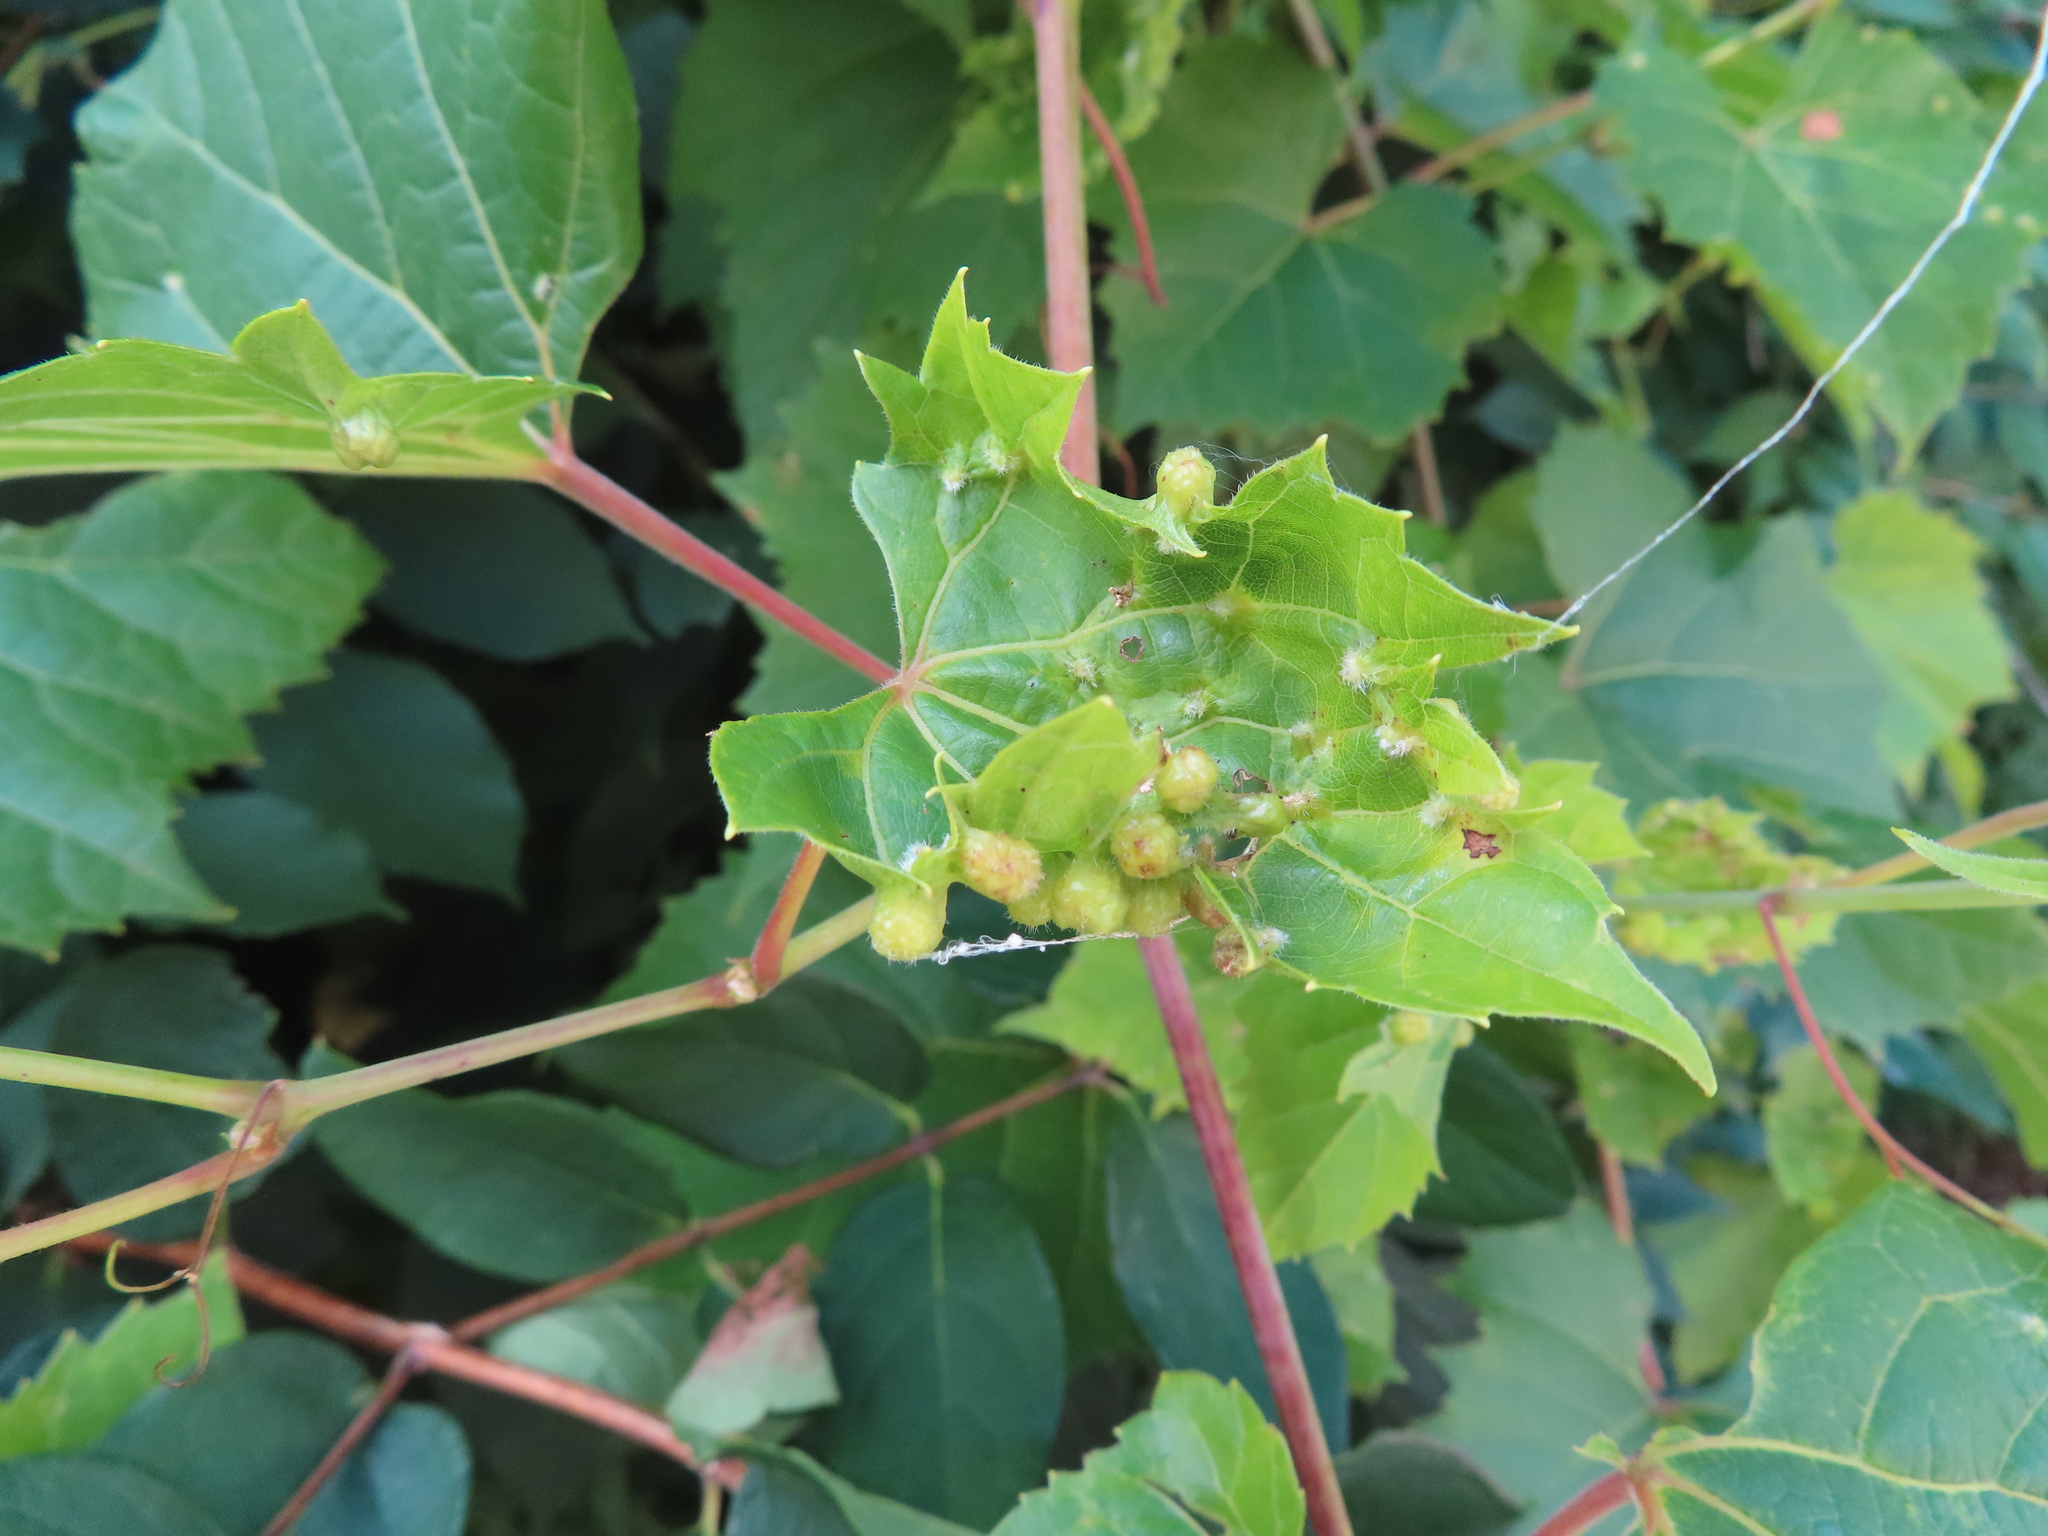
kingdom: Animalia
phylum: Arthropoda
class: Insecta
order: Hemiptera
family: Phylloxeridae
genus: Daktulosphaira
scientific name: Daktulosphaira vitifoliae
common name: Grape phylloxera
